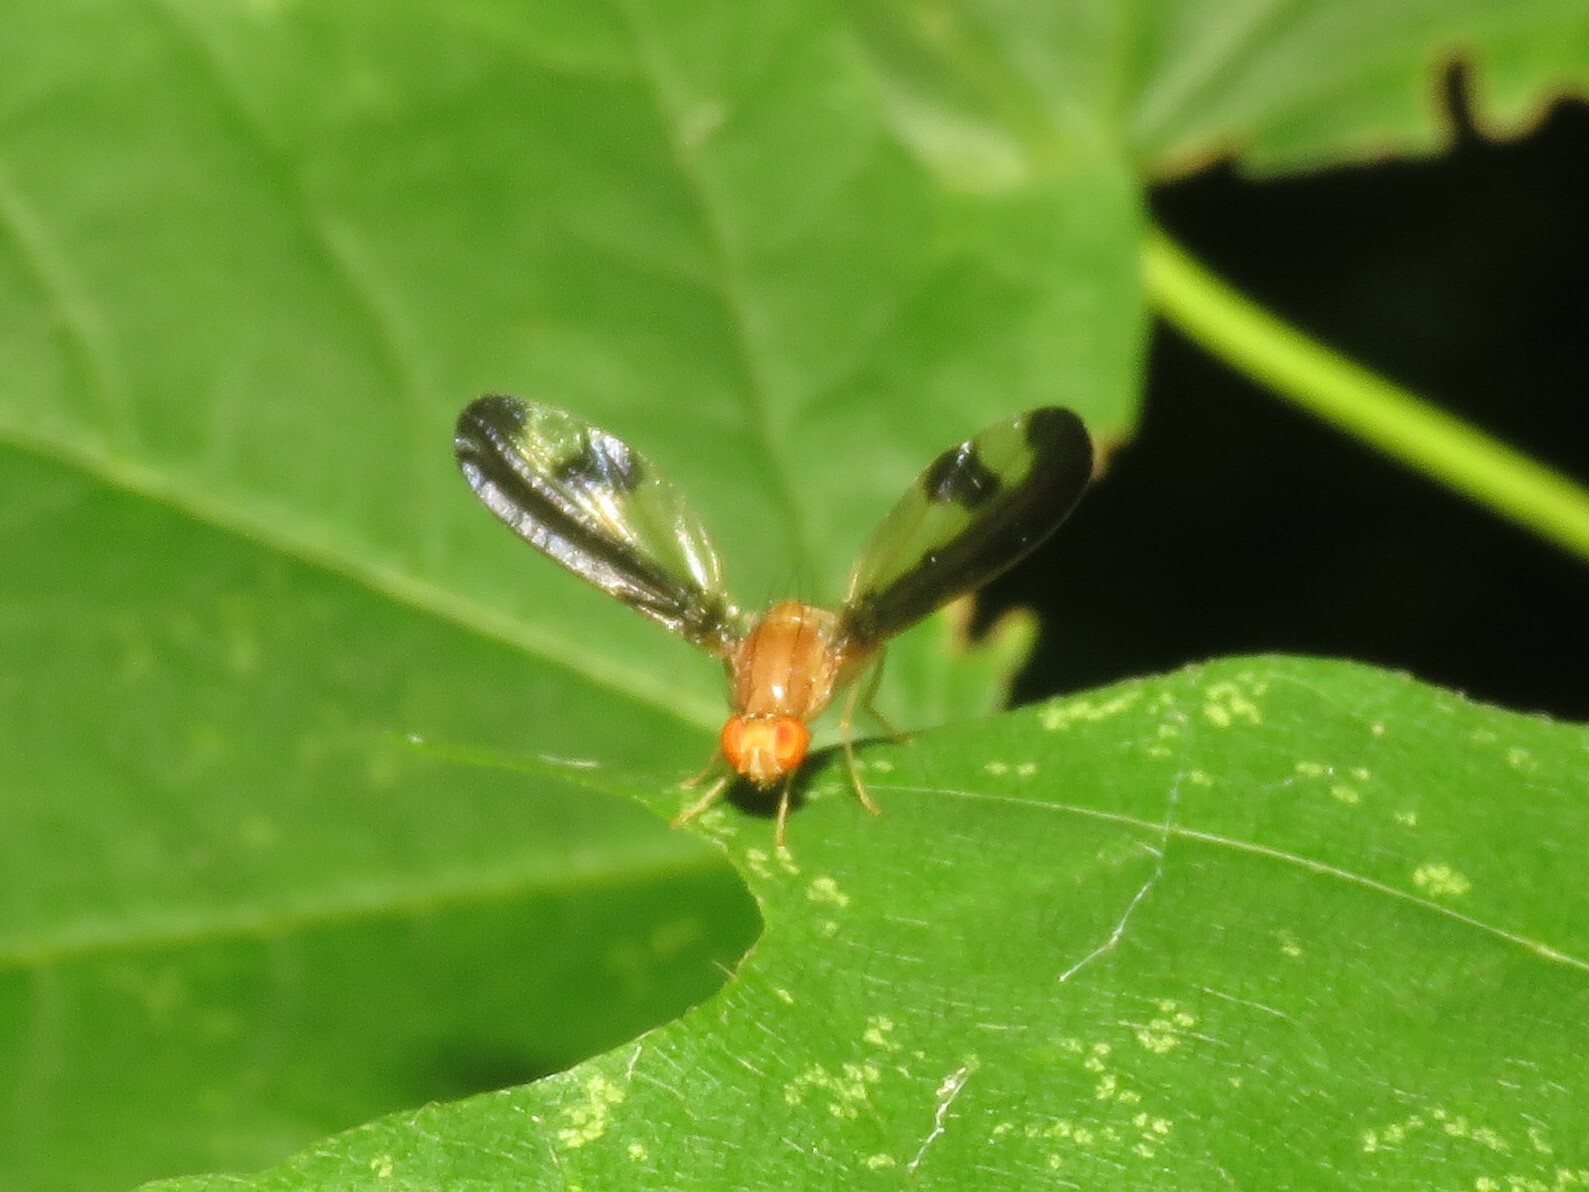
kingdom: Animalia
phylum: Arthropoda
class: Insecta
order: Diptera
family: Pallopteridae
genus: Toxonevra
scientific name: Toxonevra superba
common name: Antlered flutter fly
